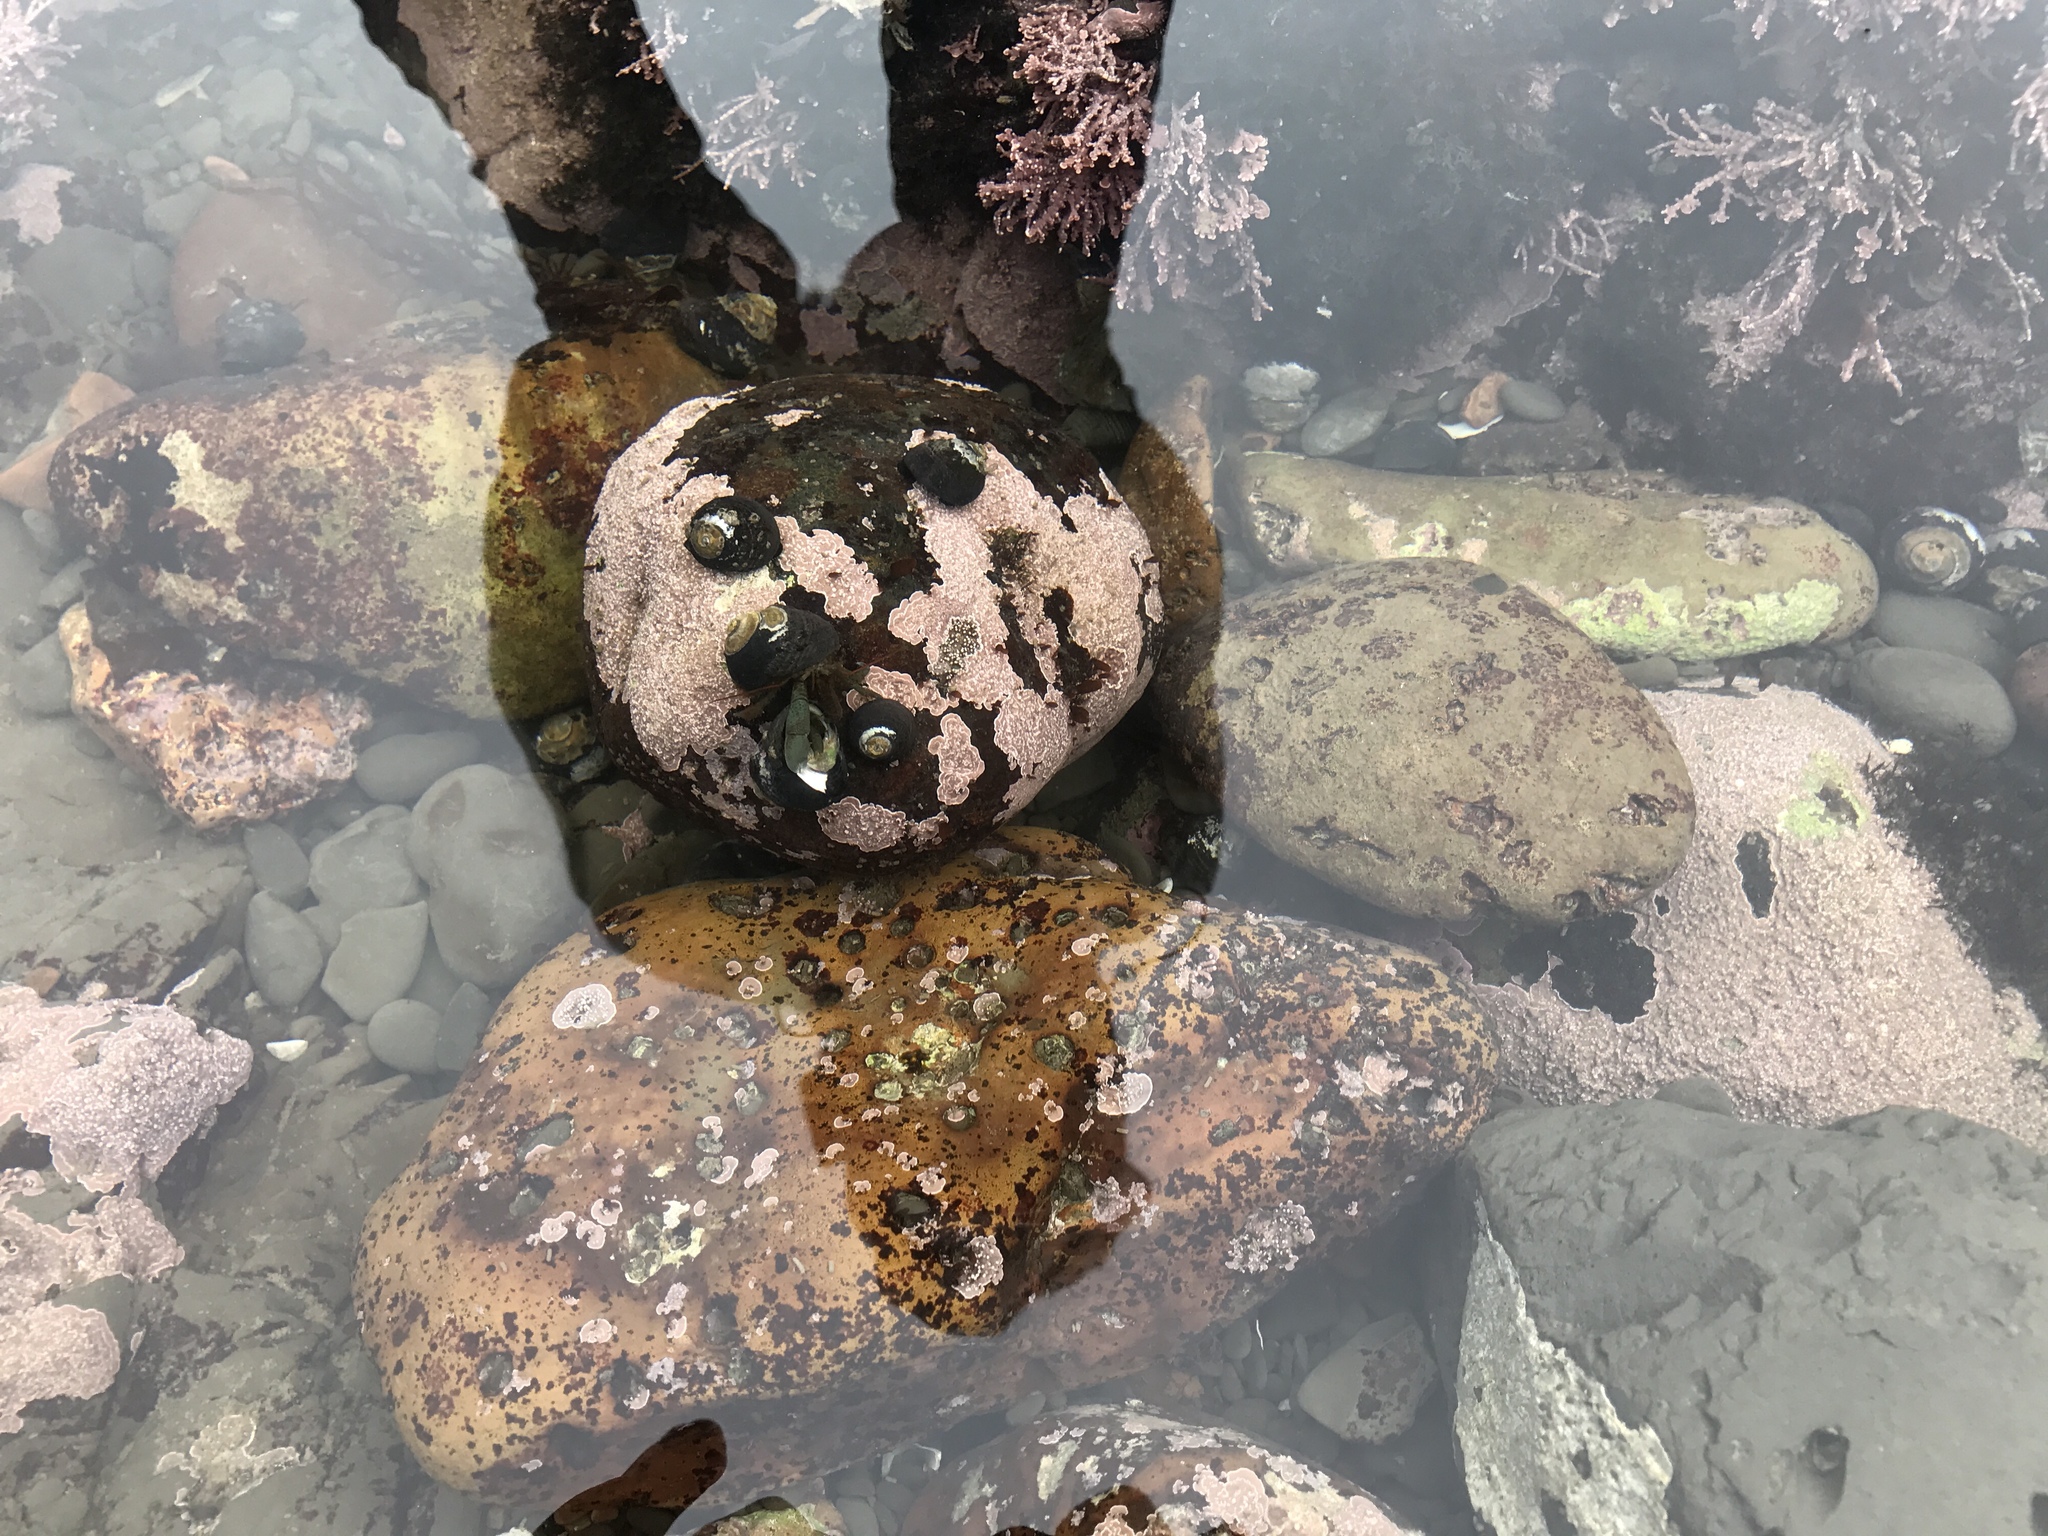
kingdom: Animalia
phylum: Arthropoda
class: Malacostraca
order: Decapoda
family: Paguridae
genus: Pagurus
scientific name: Pagurus samuelis
